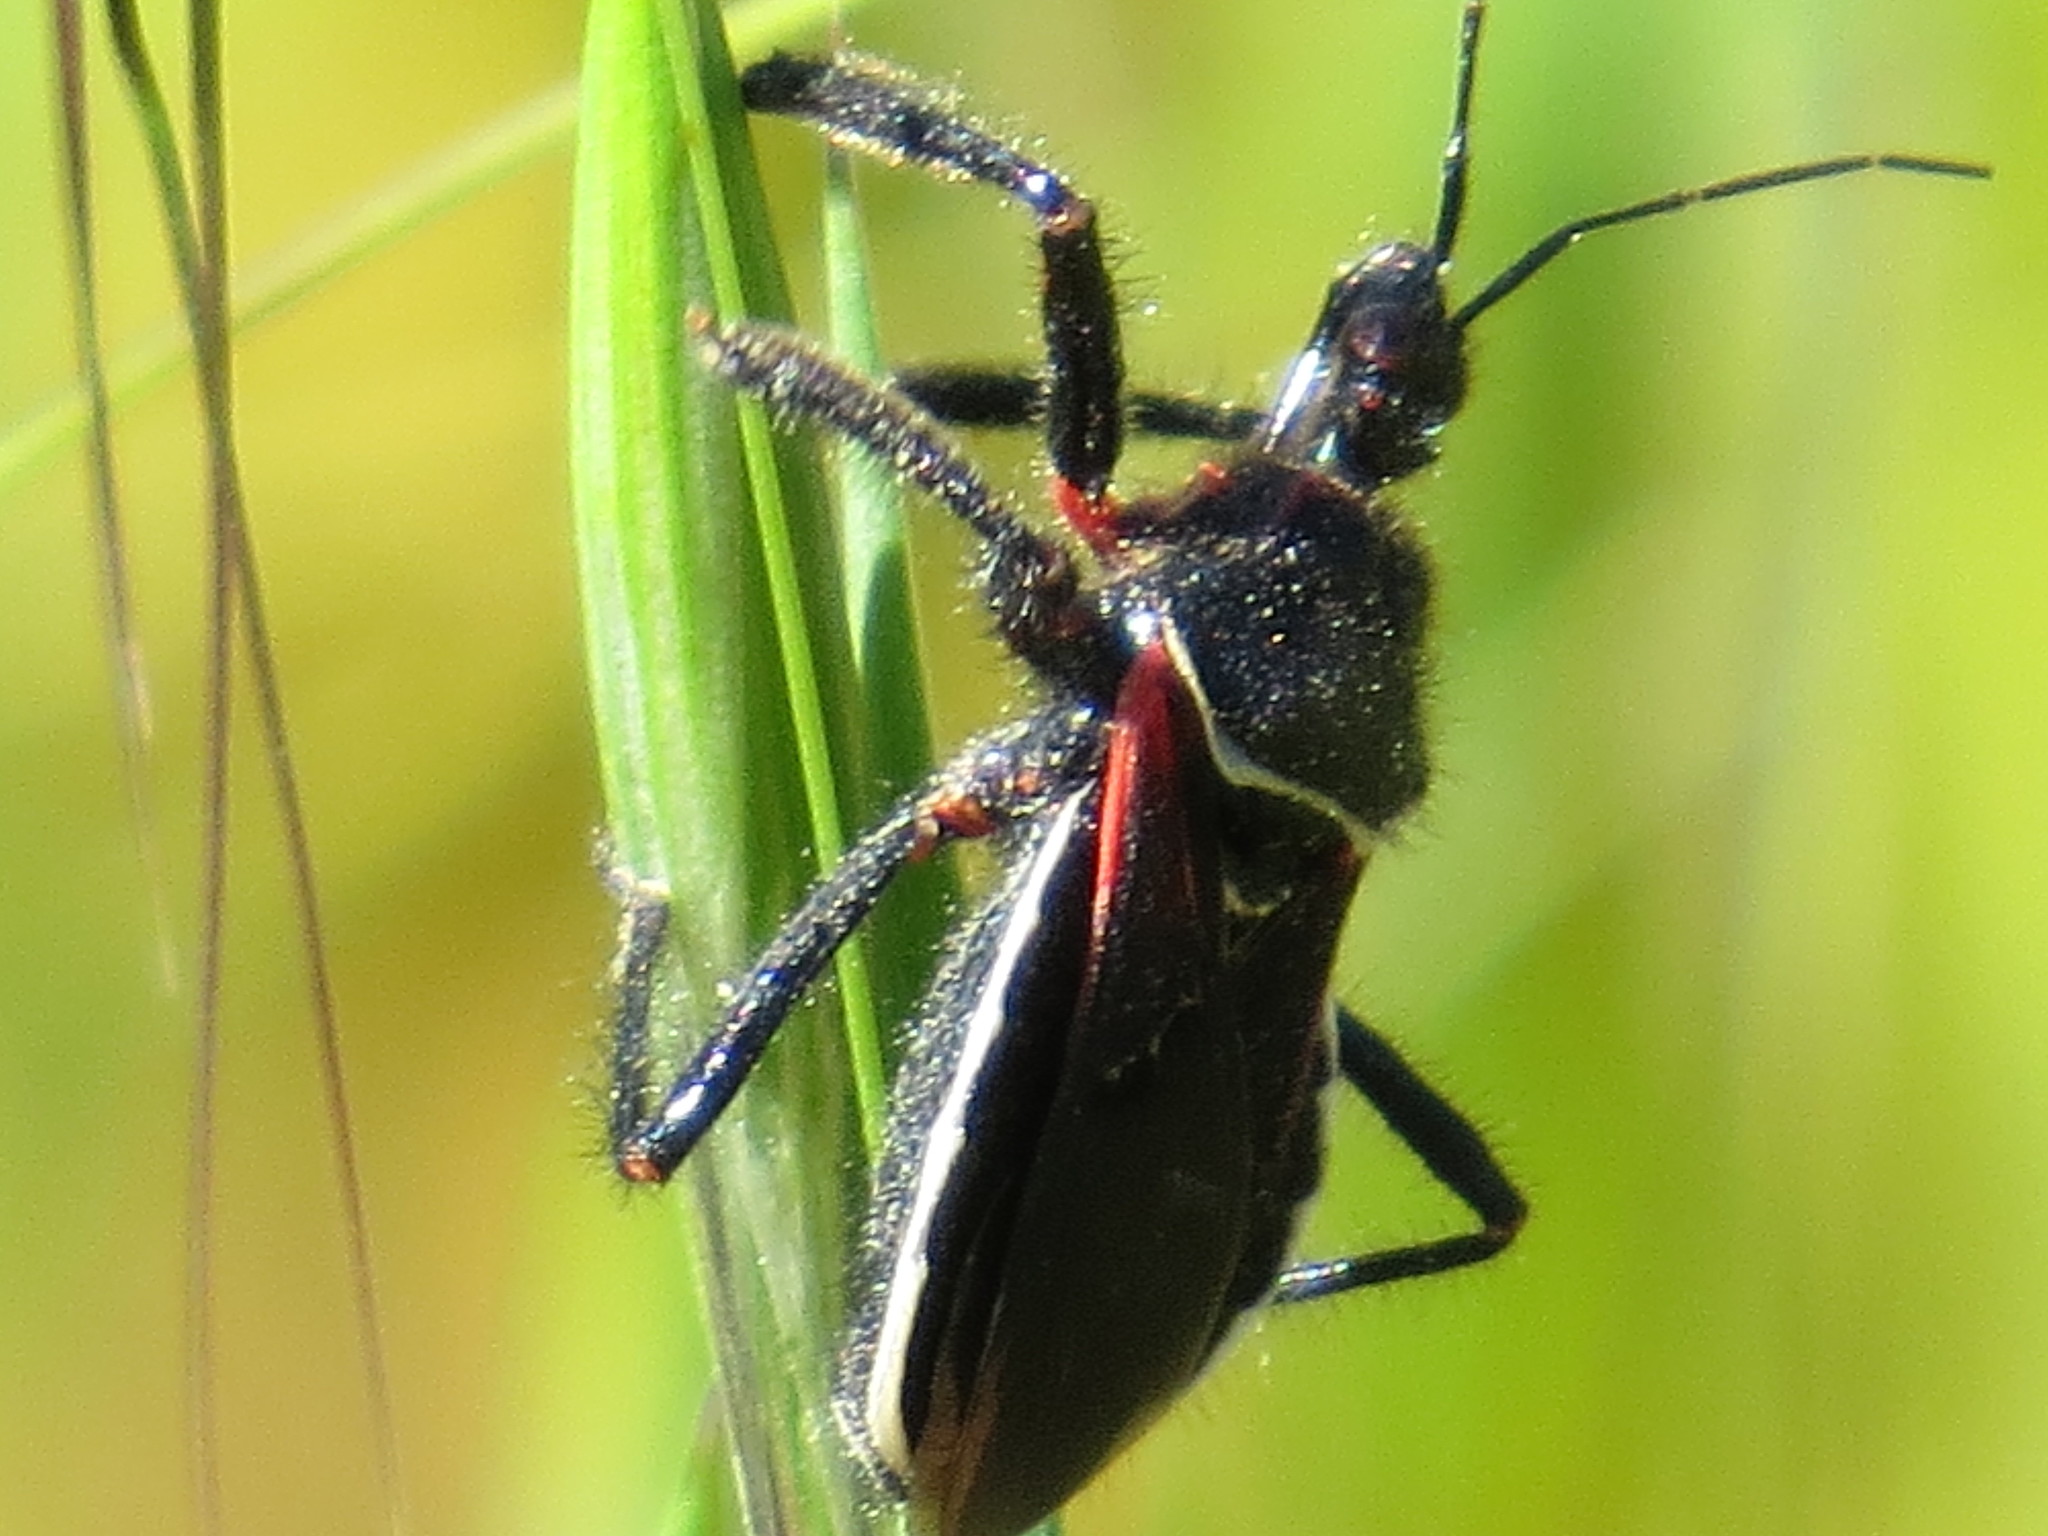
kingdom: Animalia
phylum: Arthropoda
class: Insecta
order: Hemiptera
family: Reduviidae
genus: Apiomerus
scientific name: Apiomerus californicus
